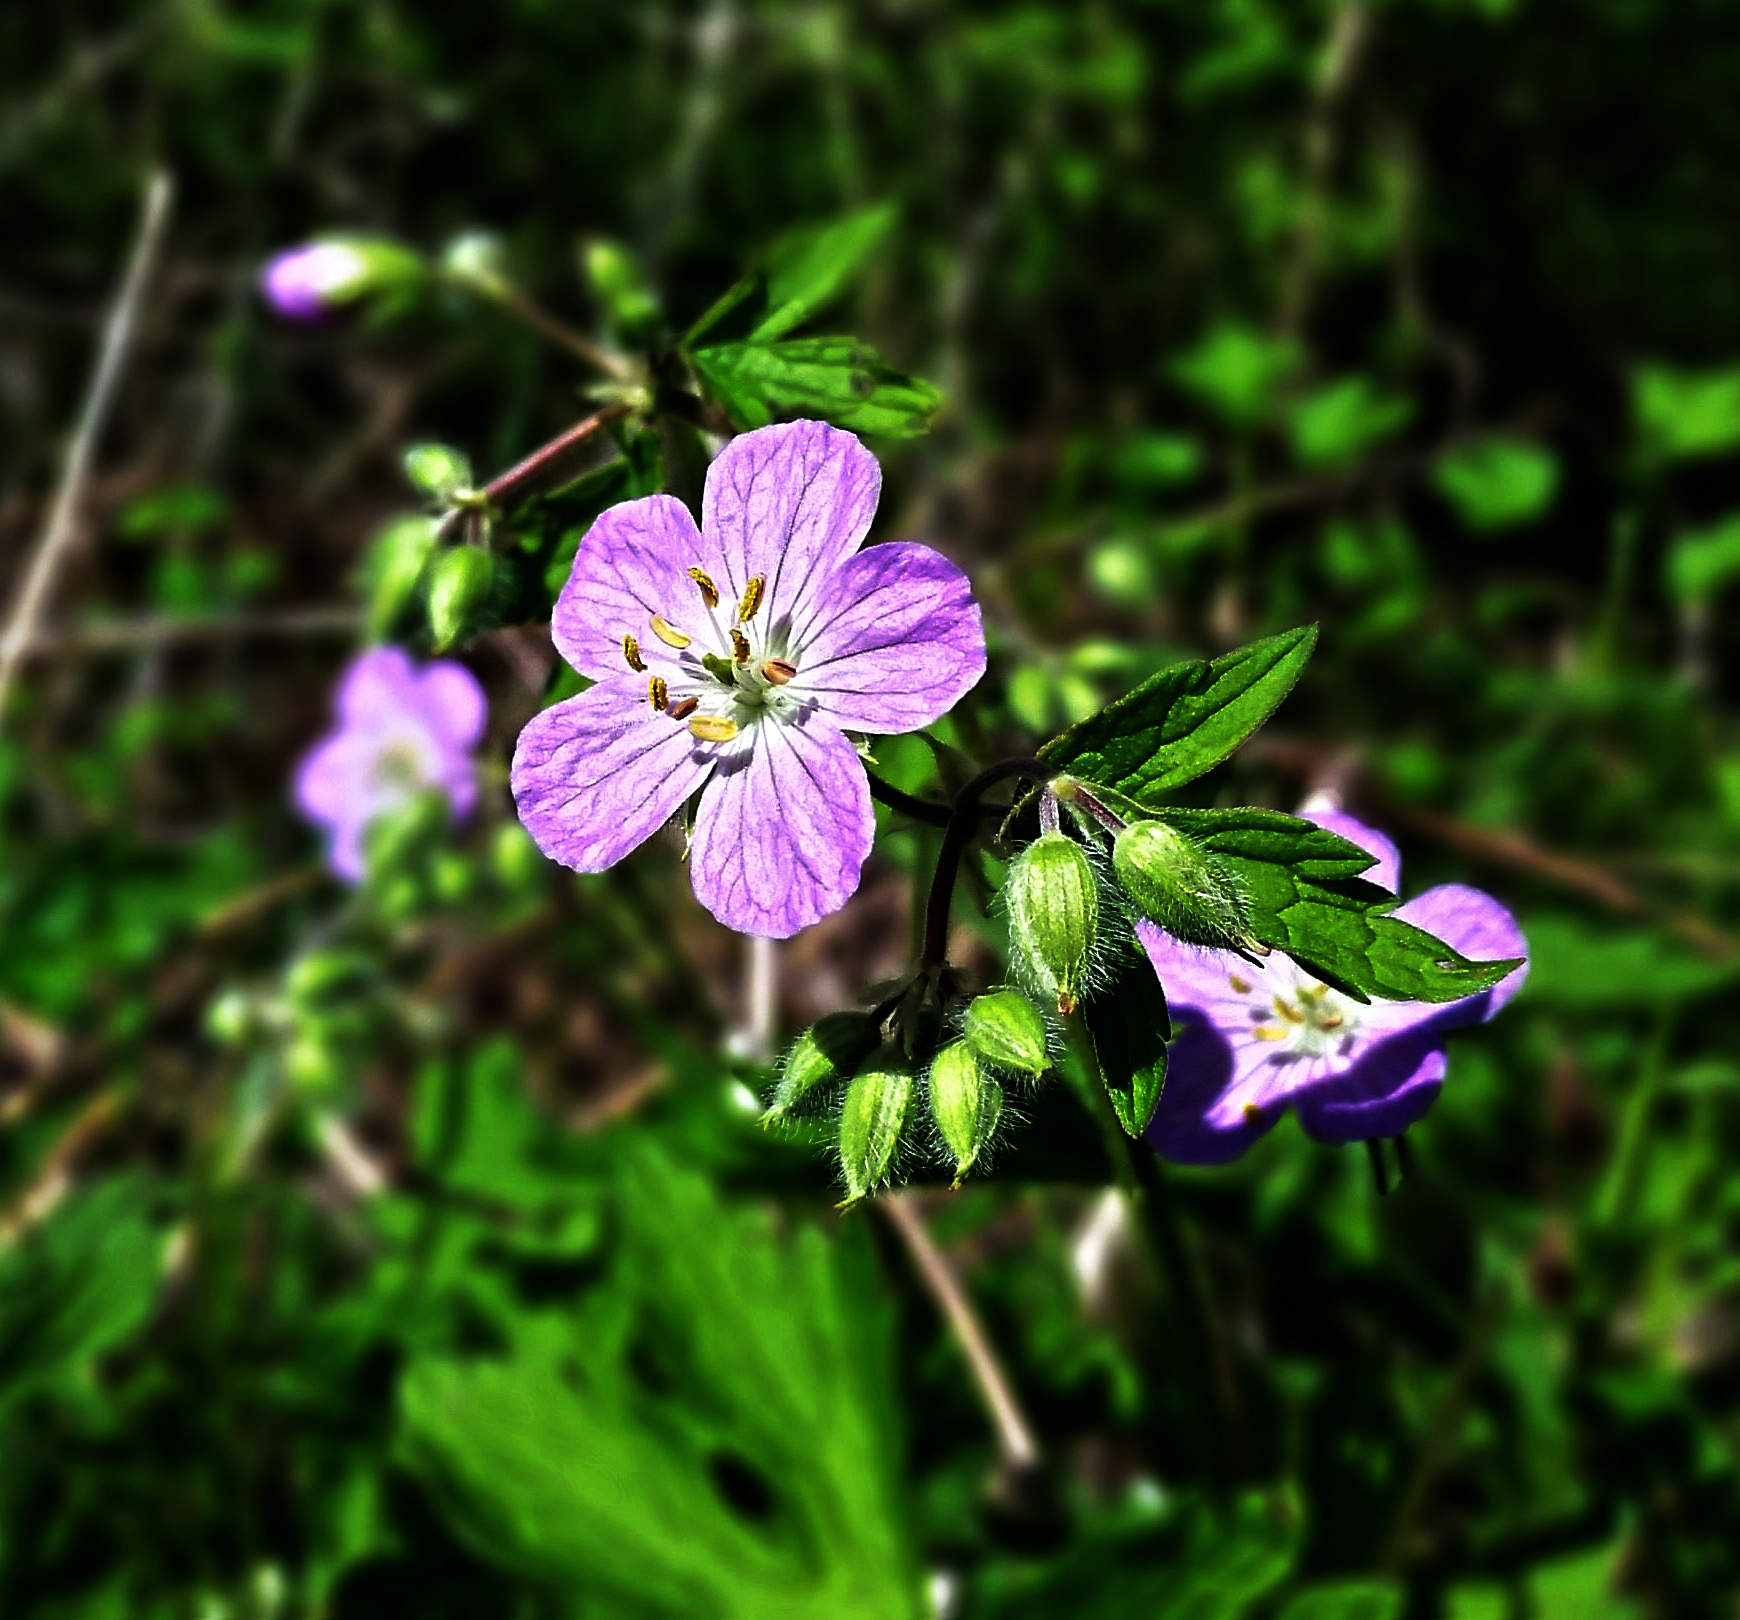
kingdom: Plantae
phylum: Tracheophyta
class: Magnoliopsida
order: Geraniales
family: Geraniaceae
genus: Geranium
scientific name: Geranium maculatum
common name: Spotted geranium
